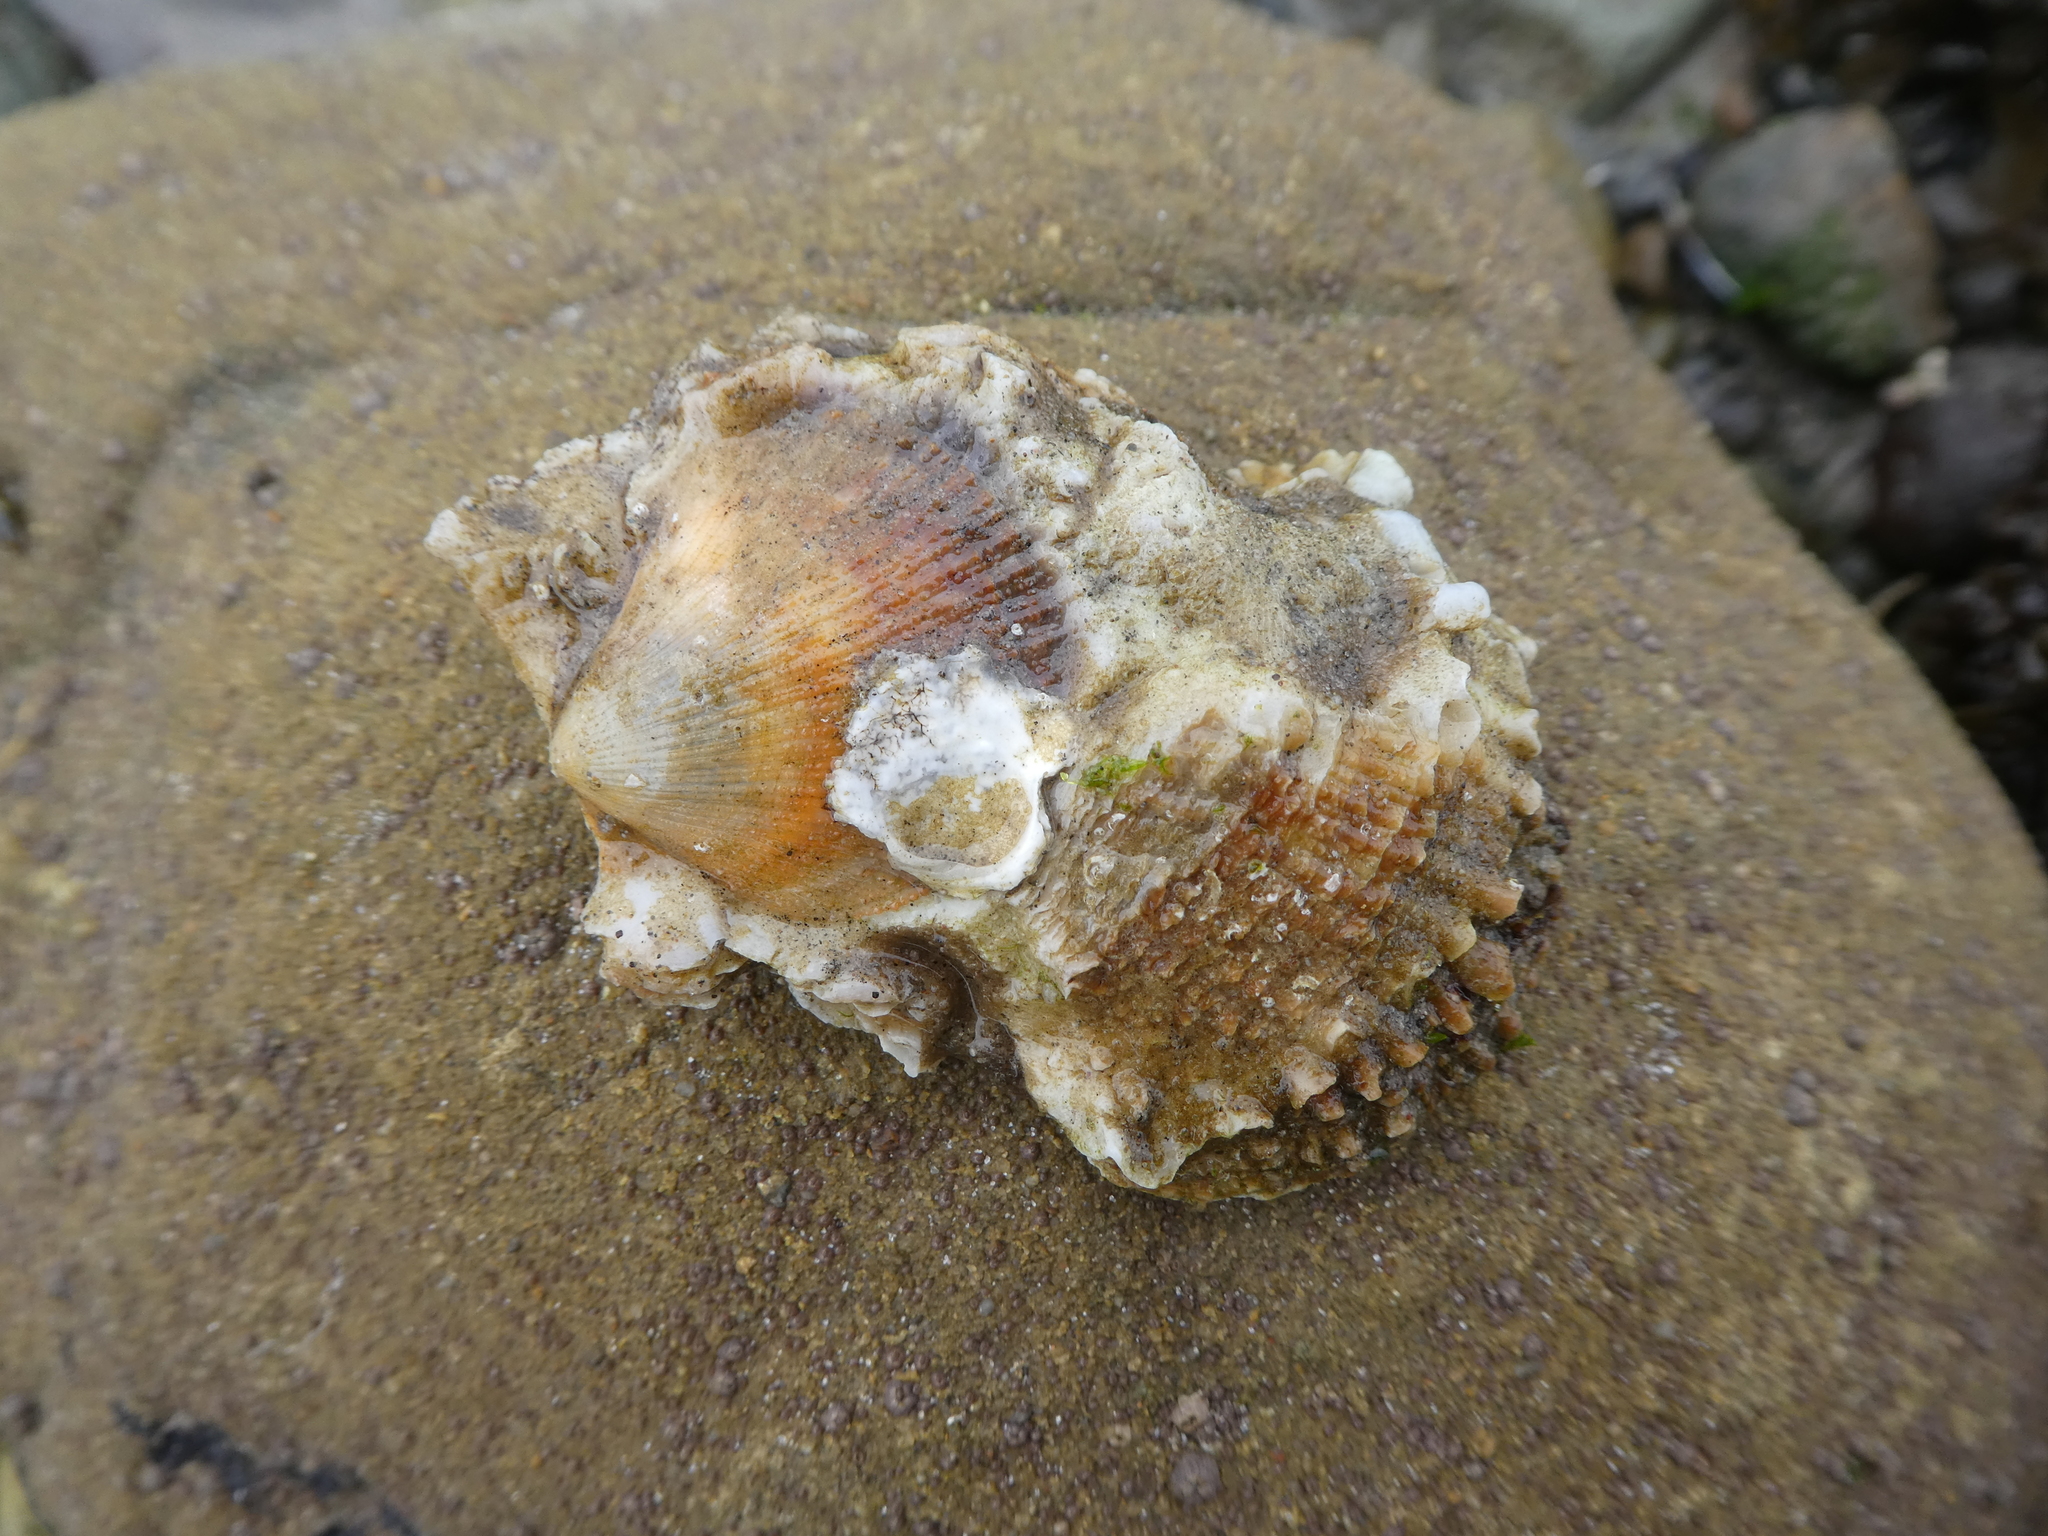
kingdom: Animalia
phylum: Mollusca
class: Bivalvia
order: Pectinida
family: Pectinidae
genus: Crassadoma
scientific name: Crassadoma gigantea
